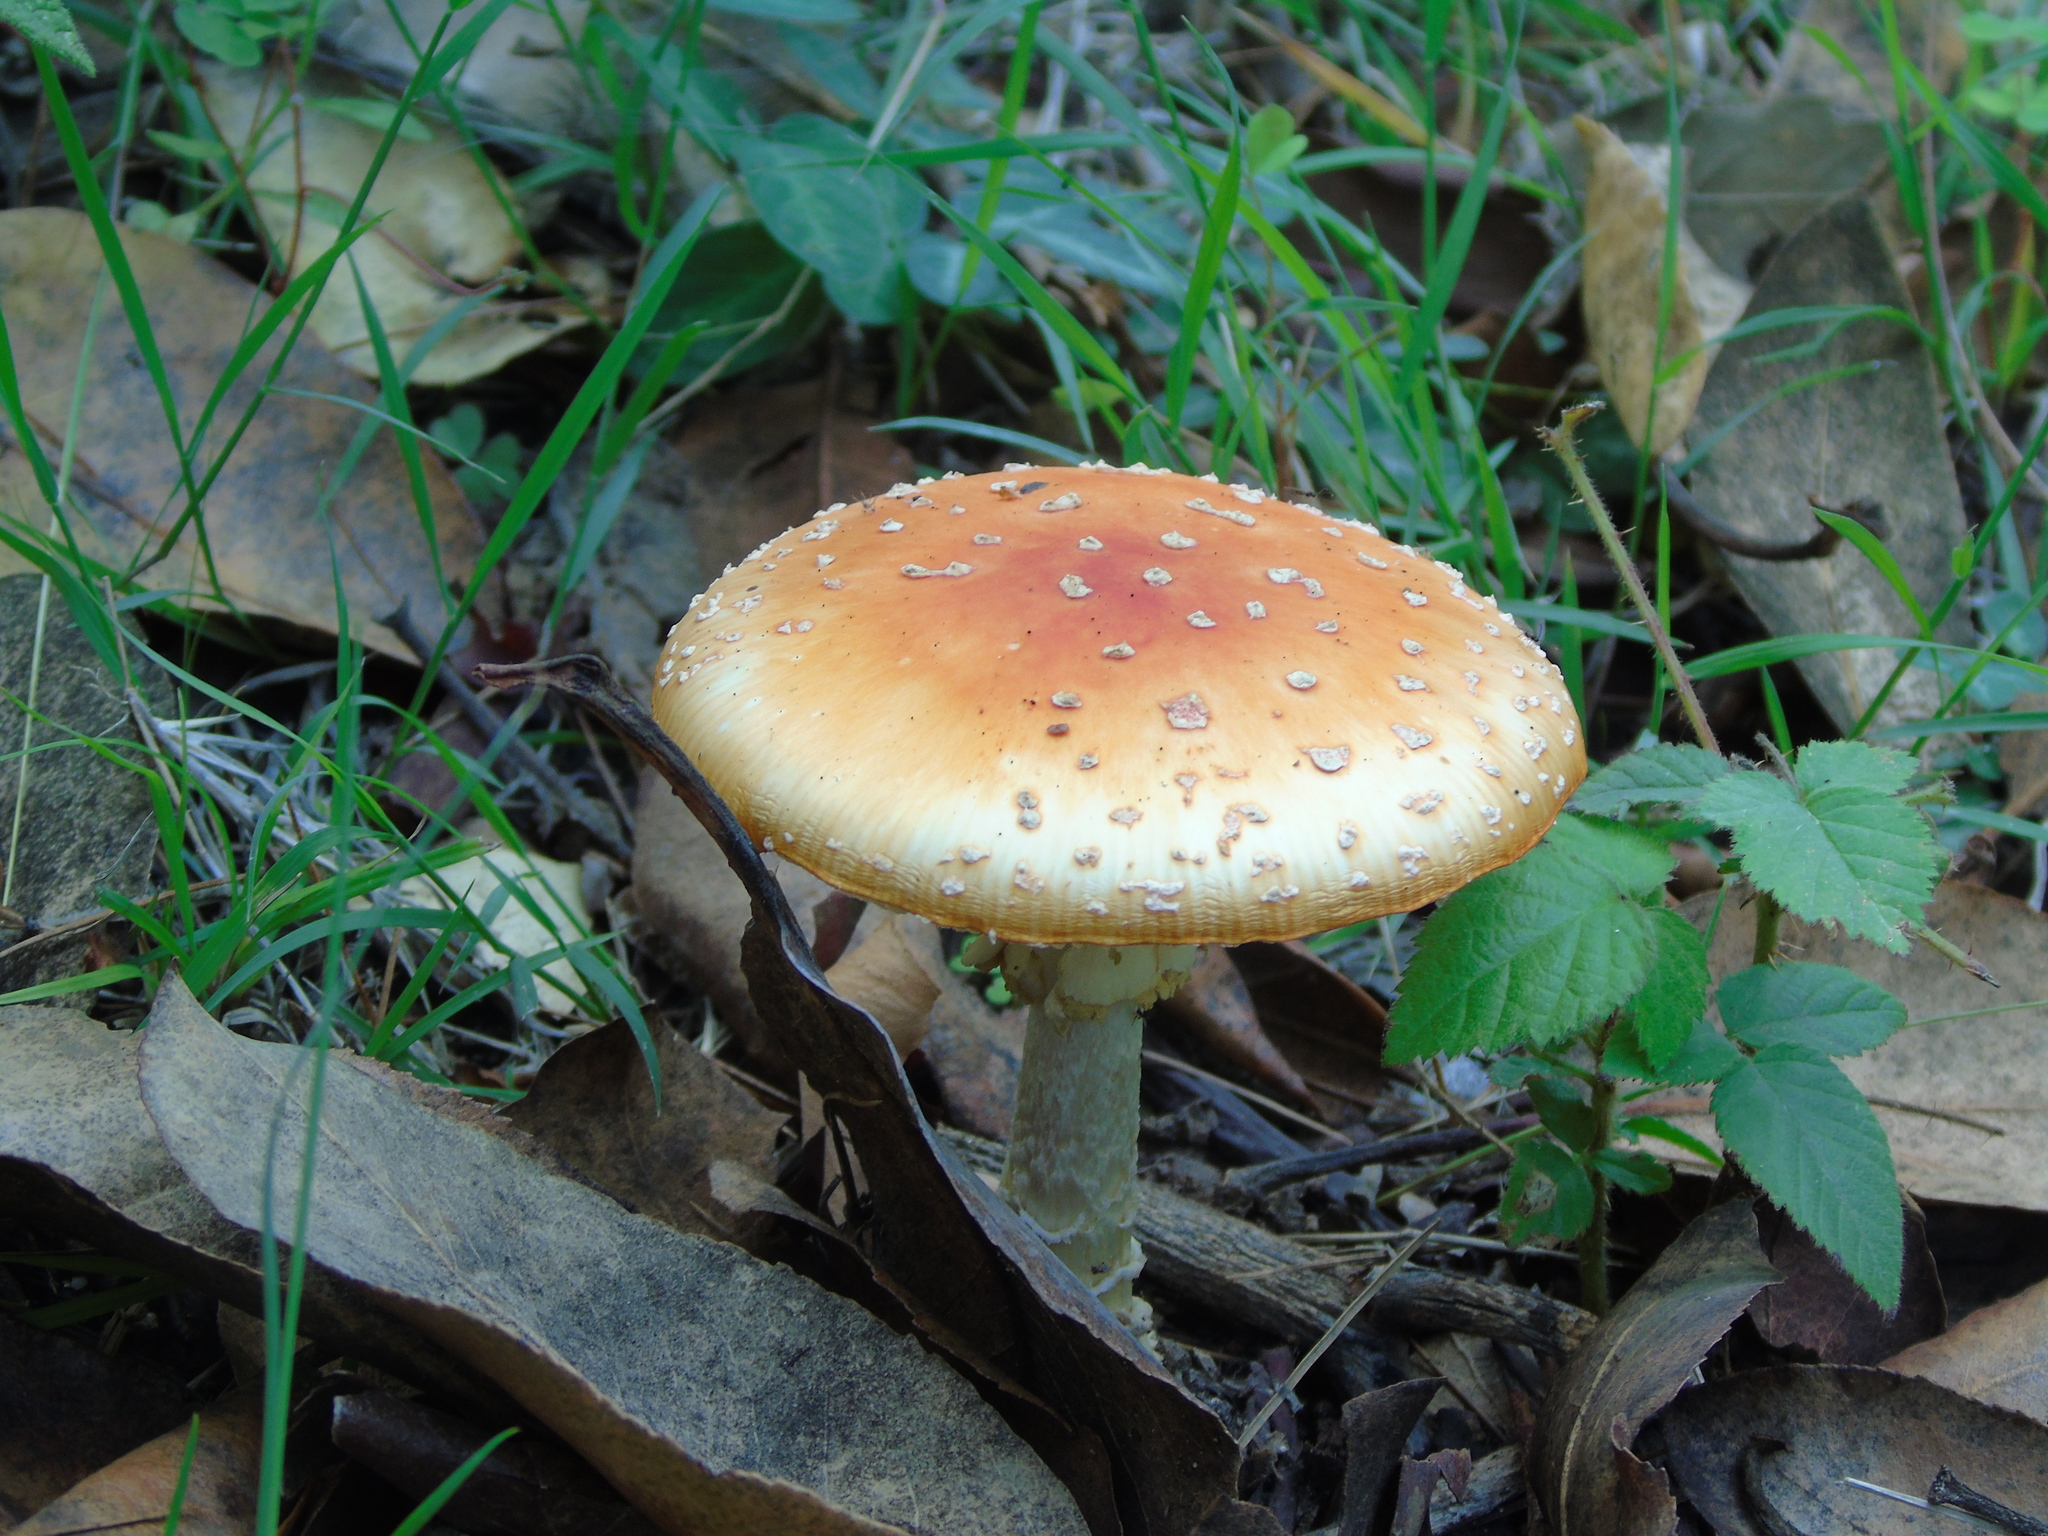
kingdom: Fungi
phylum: Basidiomycota
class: Agaricomycetes
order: Agaricales
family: Amanitaceae
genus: Amanita
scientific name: Amanita muscaria
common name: Fly agaric
